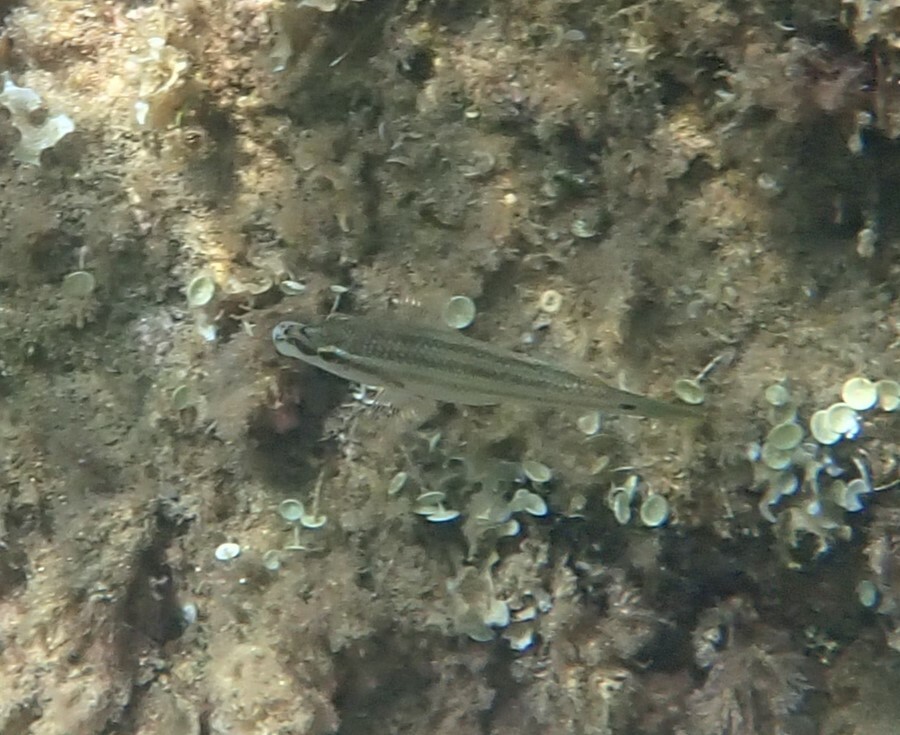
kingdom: Animalia
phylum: Chordata
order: Perciformes
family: Labridae
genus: Symphodus
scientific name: Symphodus tinca
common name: Peacock wrasse
